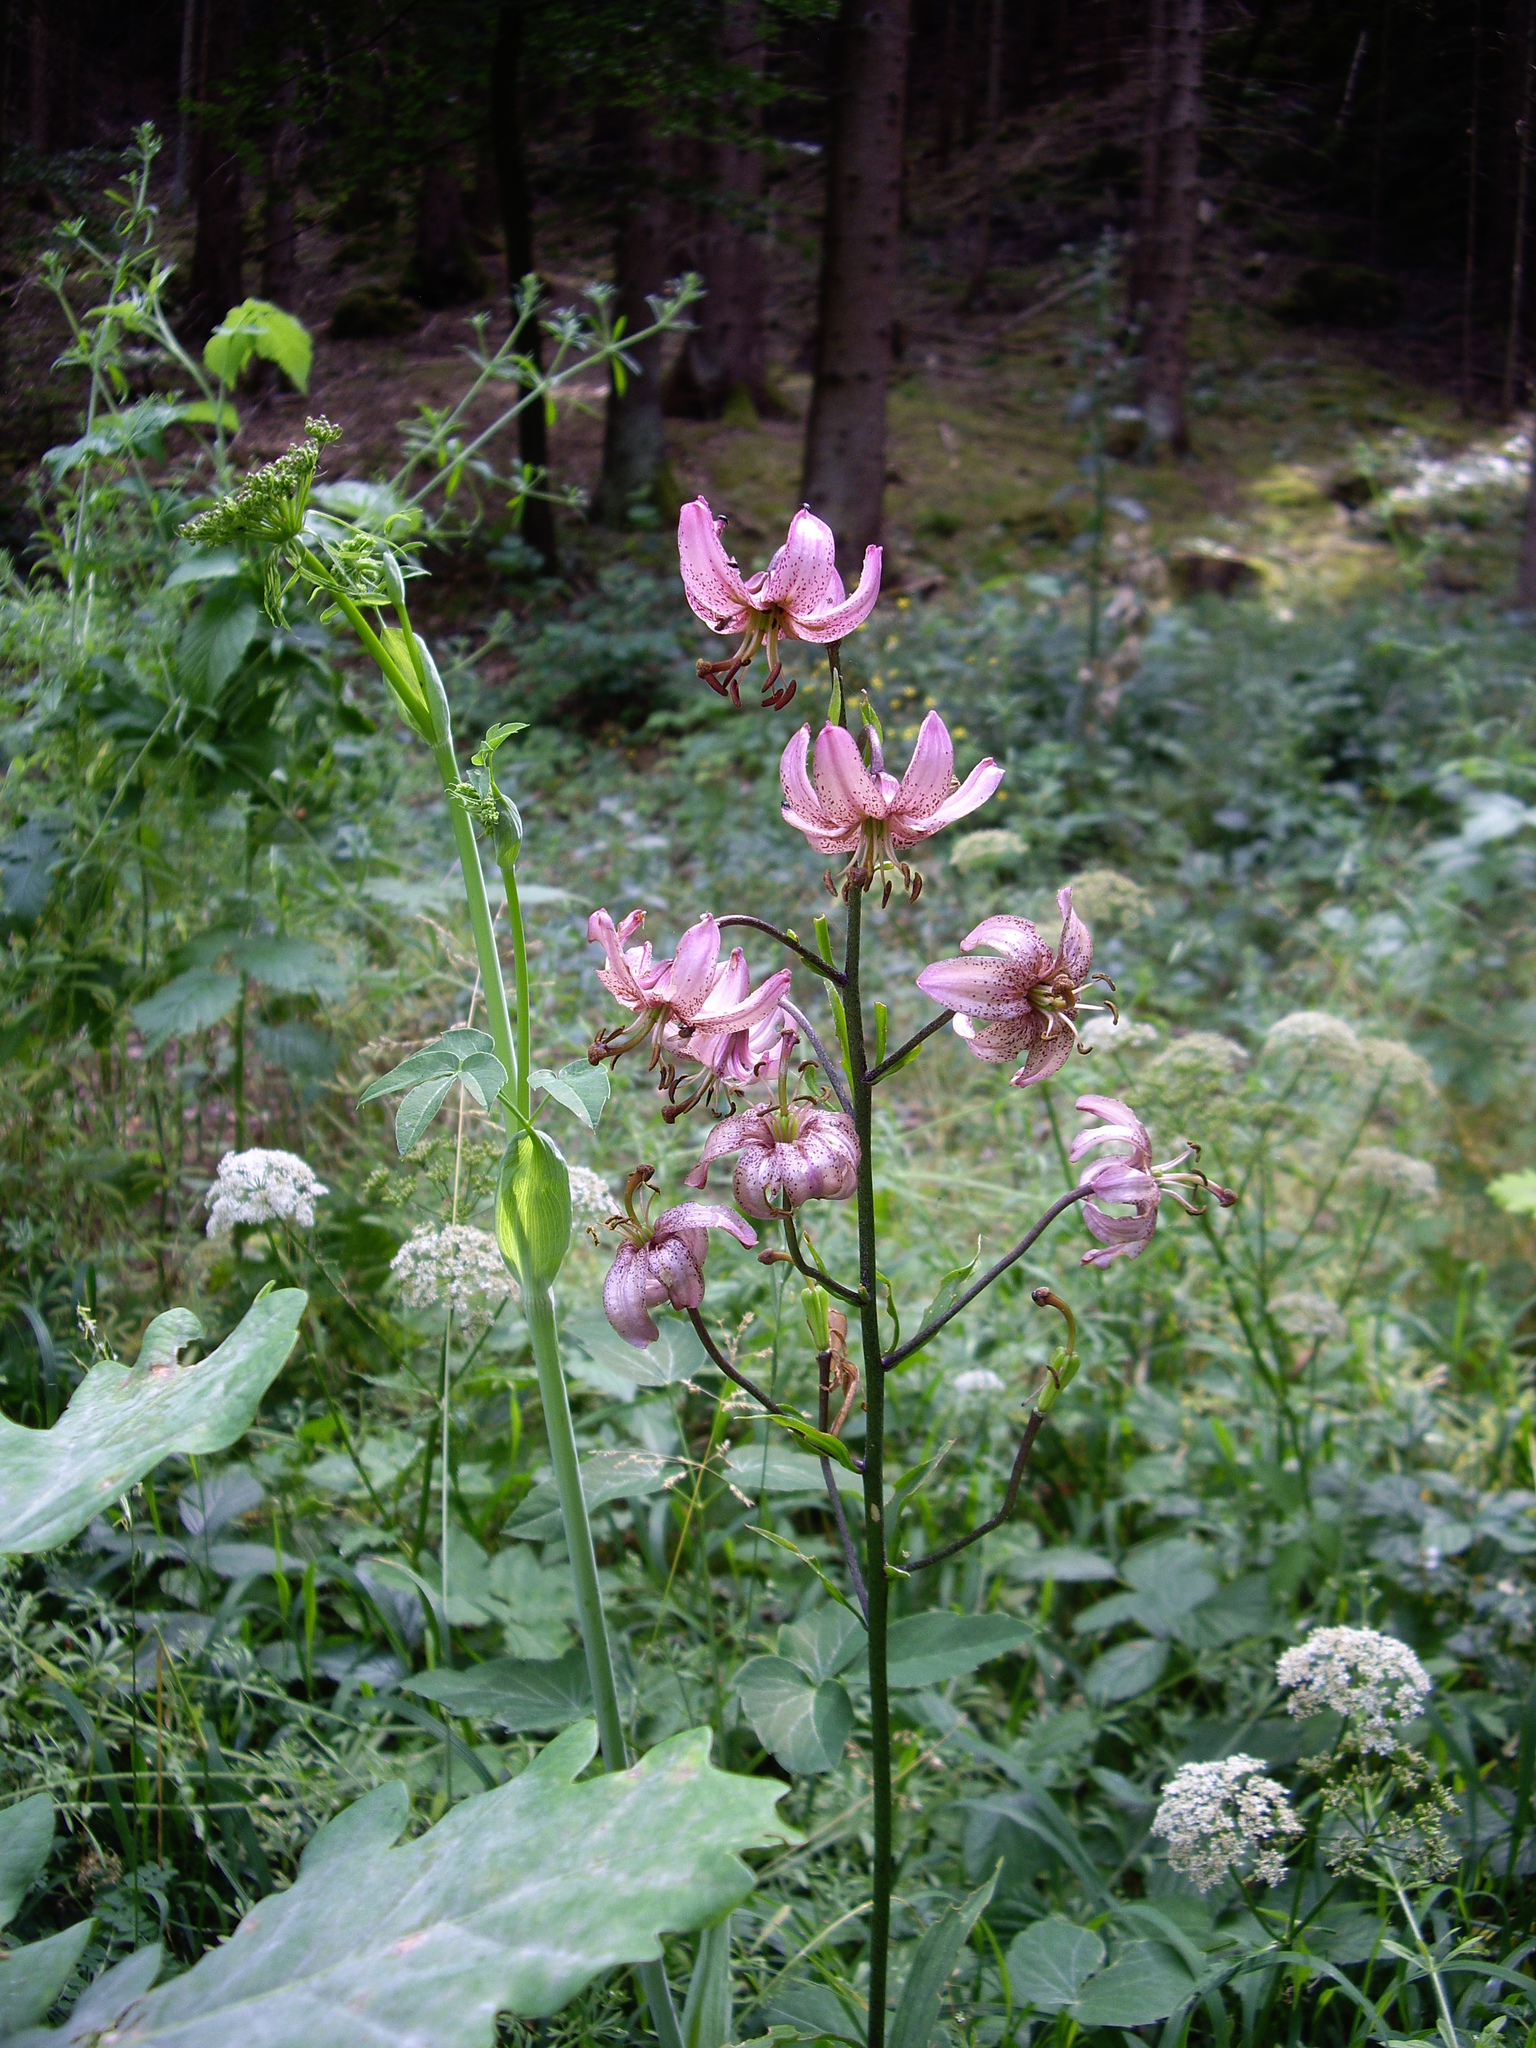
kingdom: Plantae
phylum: Tracheophyta
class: Liliopsida
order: Liliales
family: Liliaceae
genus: Lilium
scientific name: Lilium martagon
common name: Martagon lily
